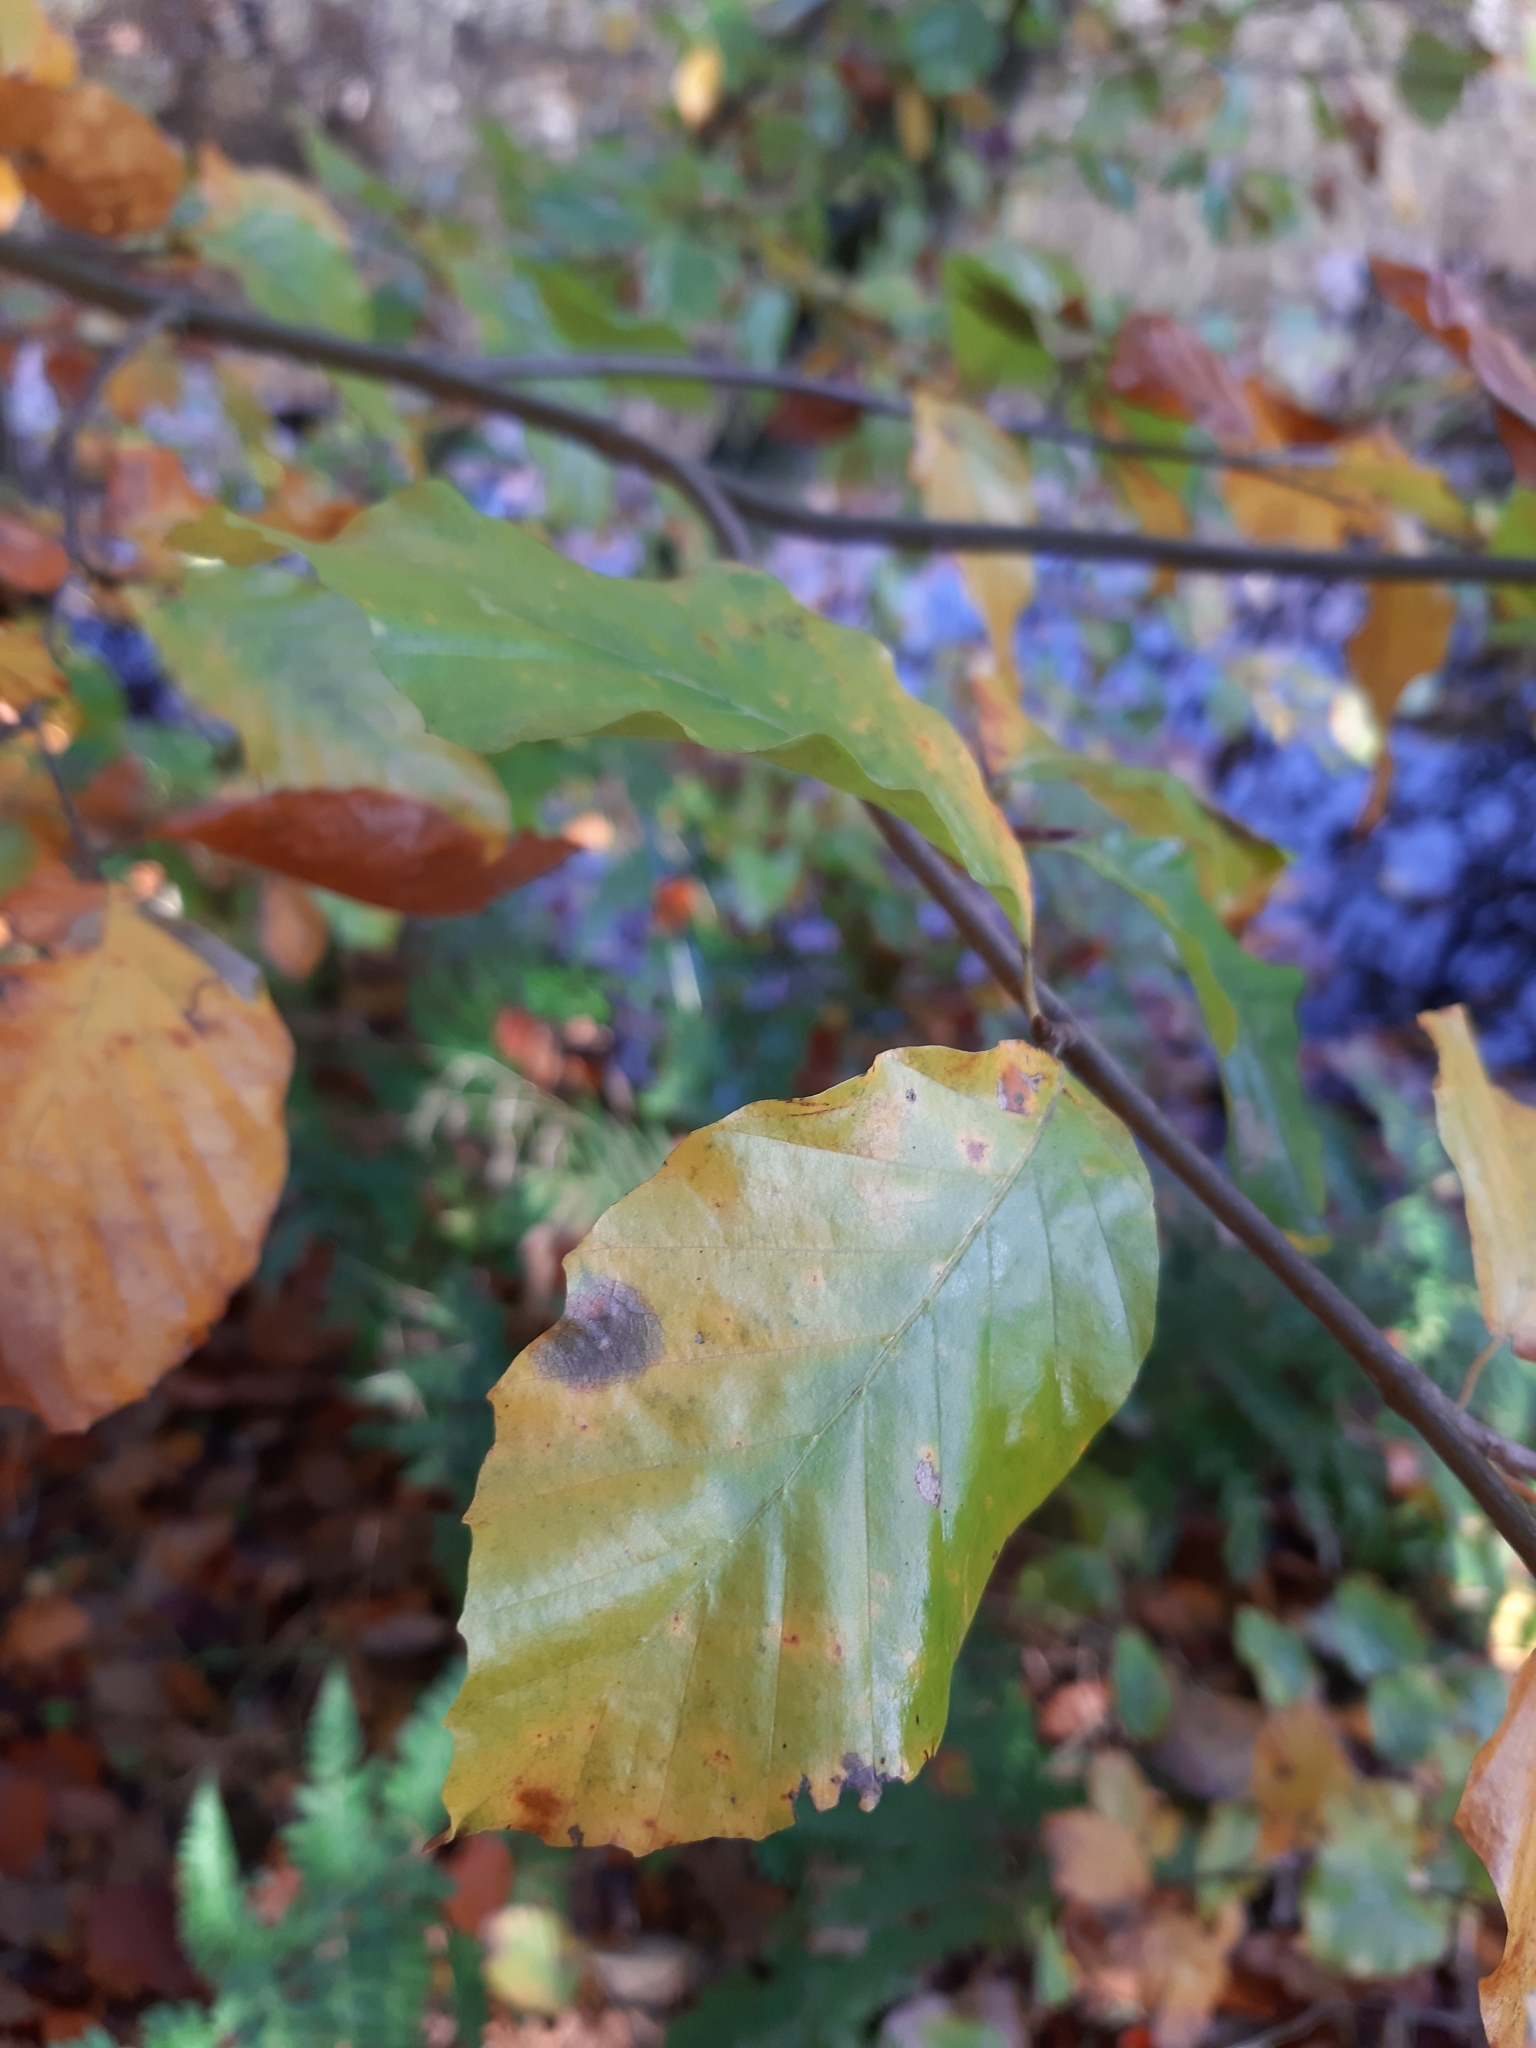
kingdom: Plantae
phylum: Tracheophyta
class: Magnoliopsida
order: Fagales
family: Fagaceae
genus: Fagus
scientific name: Fagus sylvatica
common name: Beech
